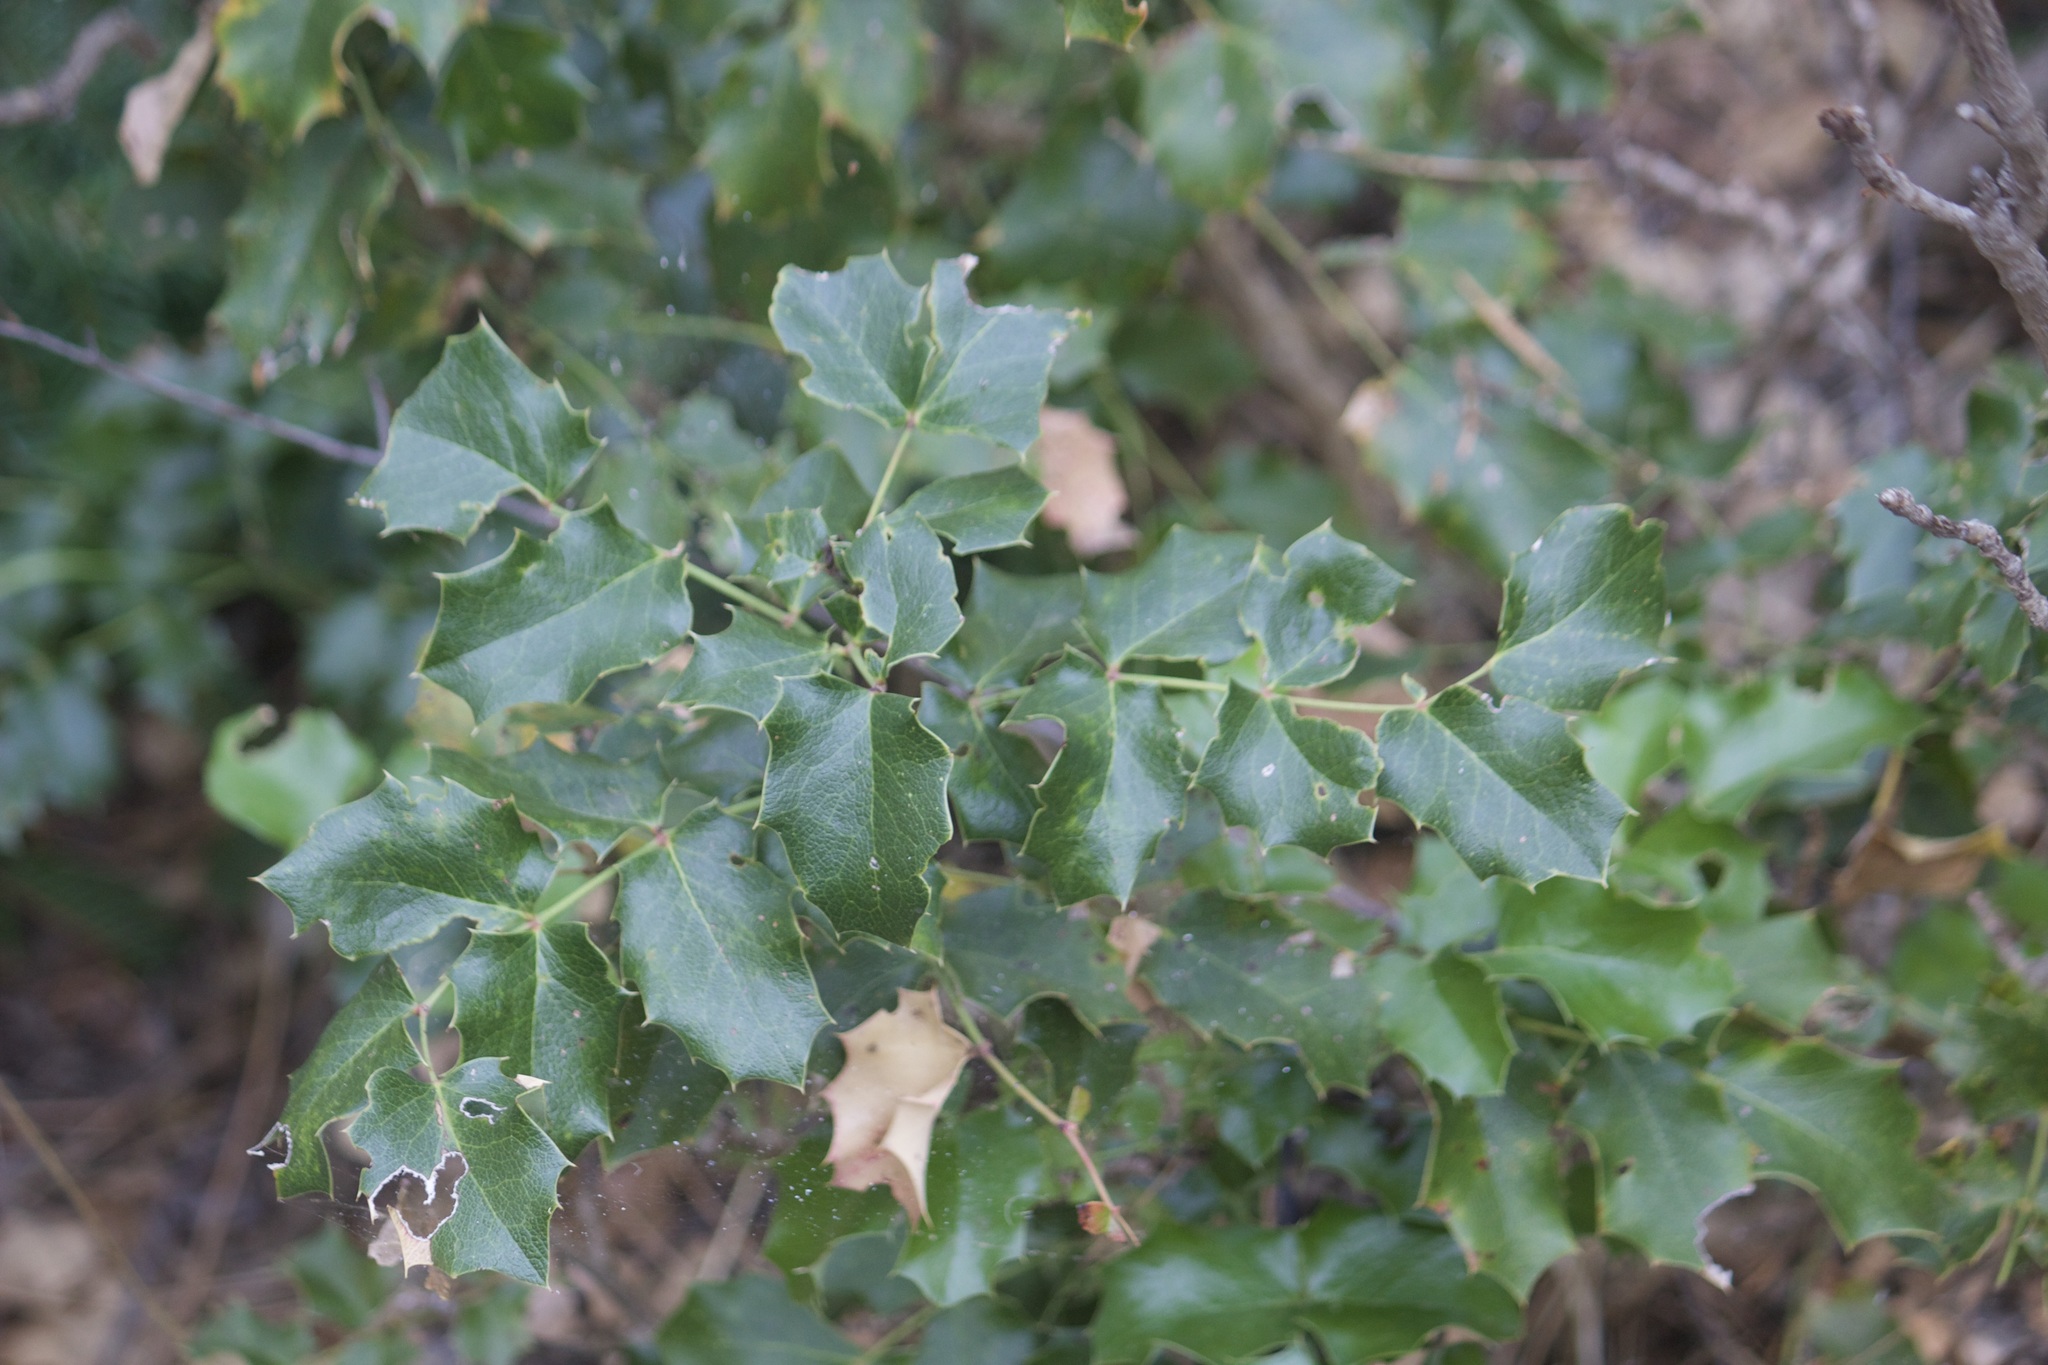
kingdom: Plantae
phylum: Tracheophyta
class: Magnoliopsida
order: Ranunculales
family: Berberidaceae
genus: Mahonia
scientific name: Mahonia aquifolium
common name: Oregon-grape
